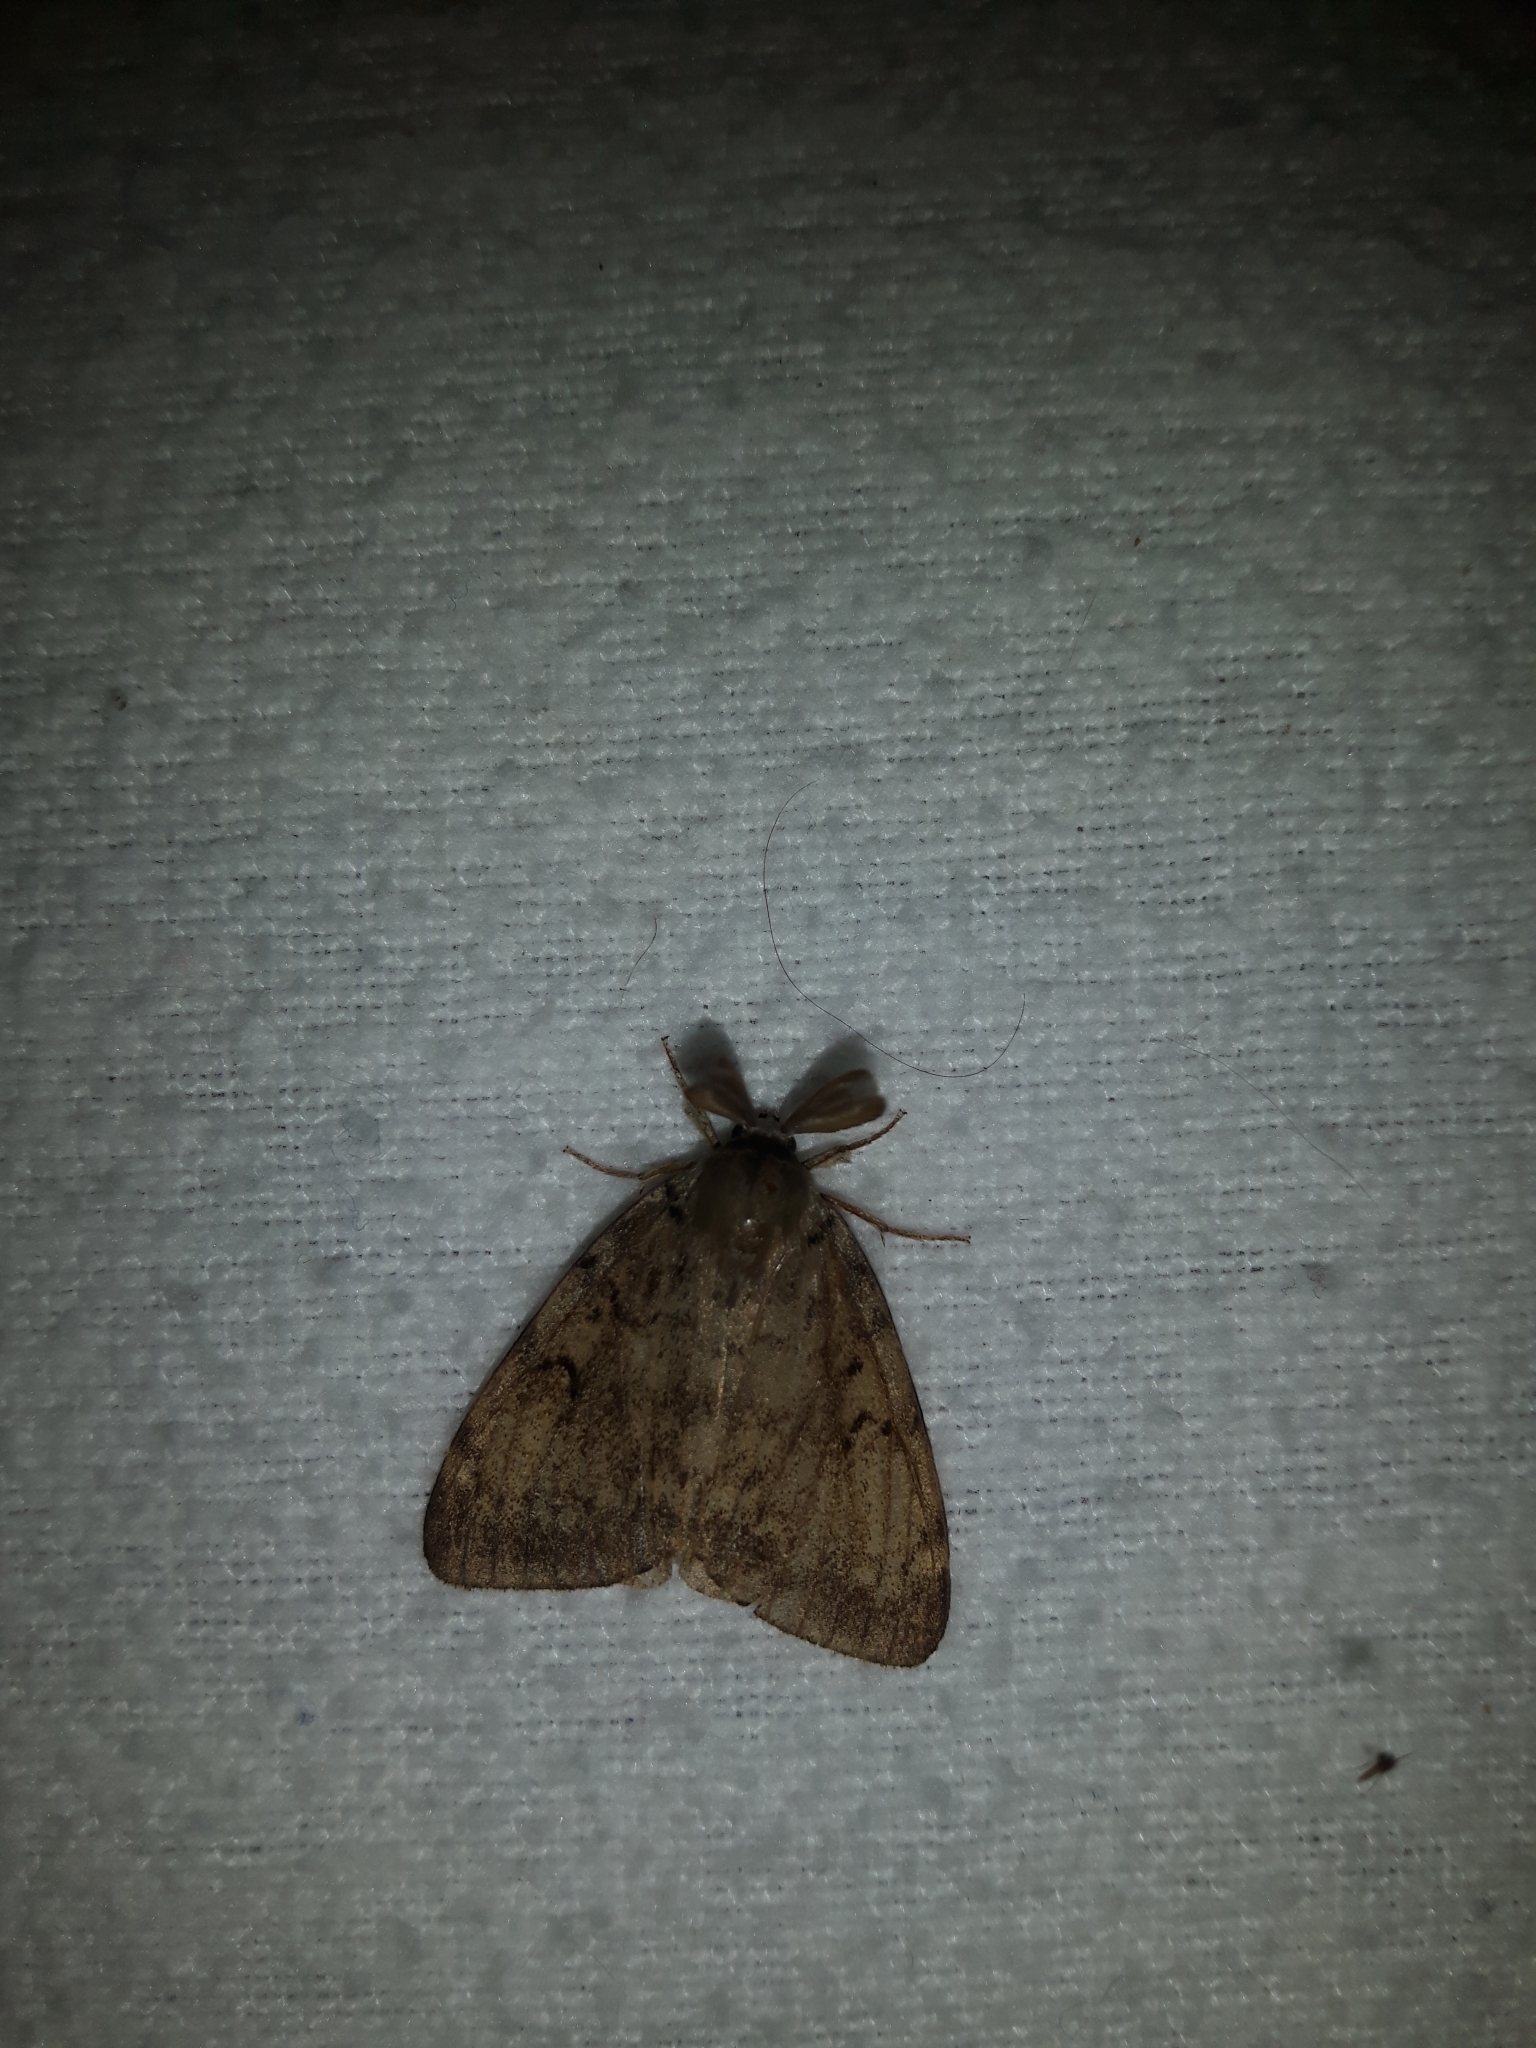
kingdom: Animalia
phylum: Arthropoda
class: Insecta
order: Lepidoptera
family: Erebidae
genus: Lymantria
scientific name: Lymantria dispar
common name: Gypsy moth
